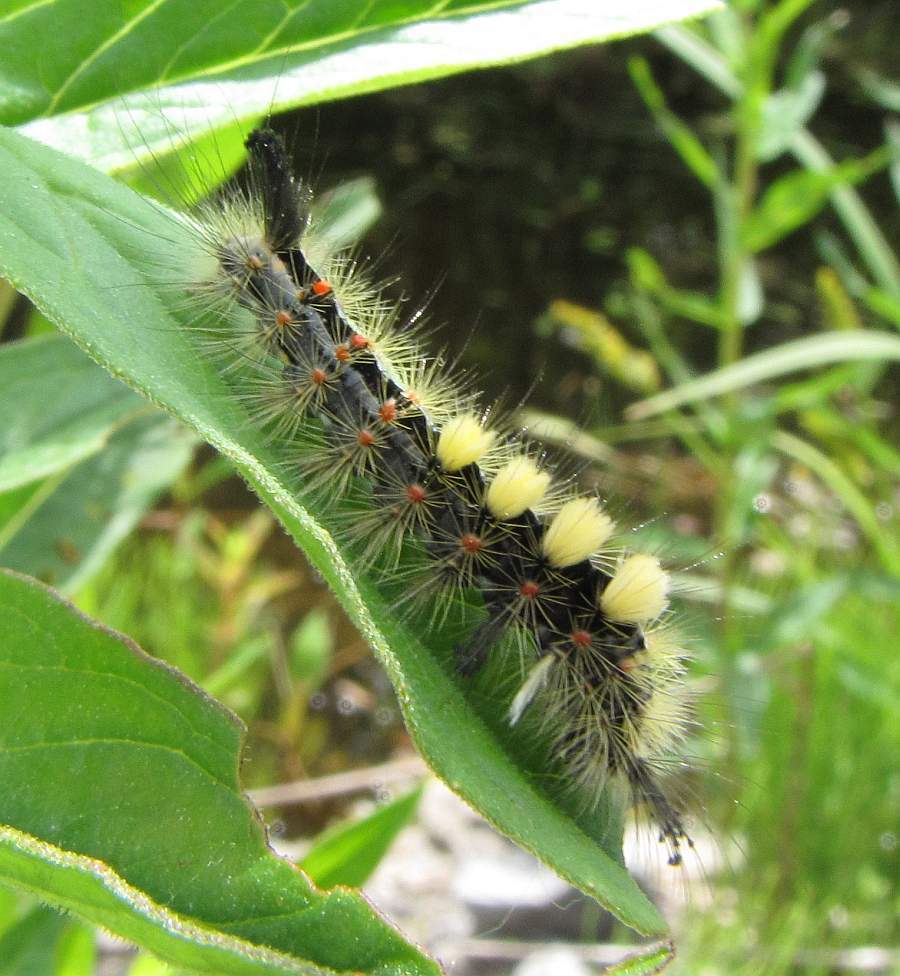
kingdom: Animalia
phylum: Arthropoda
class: Insecta
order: Lepidoptera
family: Erebidae
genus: Orgyia
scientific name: Orgyia antiqua
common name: Vapourer
